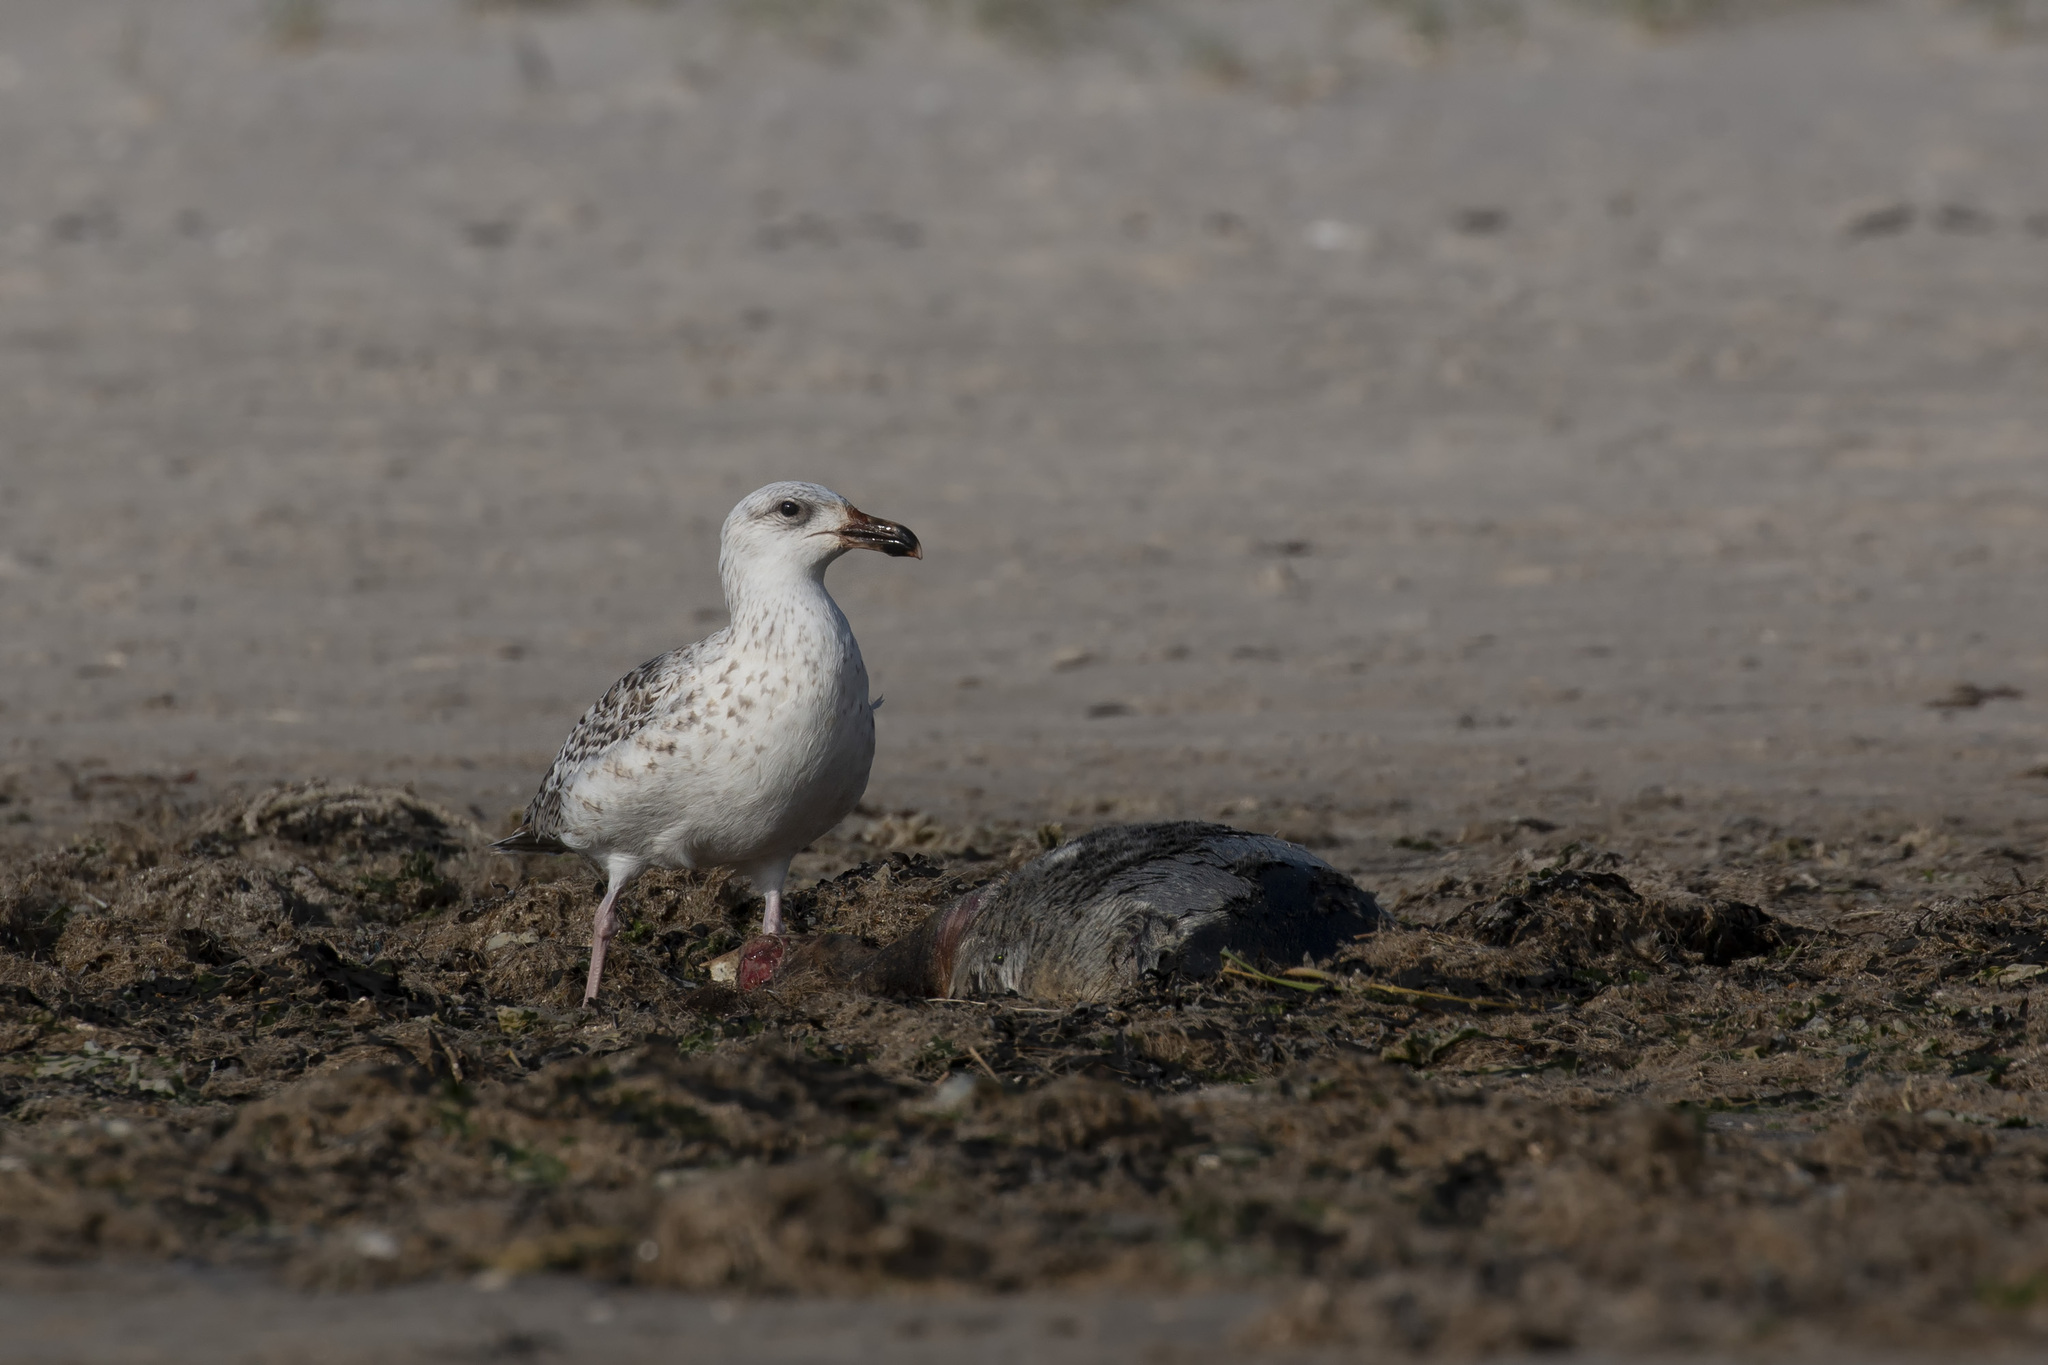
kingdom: Animalia
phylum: Chordata
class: Aves
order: Charadriiformes
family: Laridae
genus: Larus
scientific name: Larus marinus
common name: Great black-backed gull
